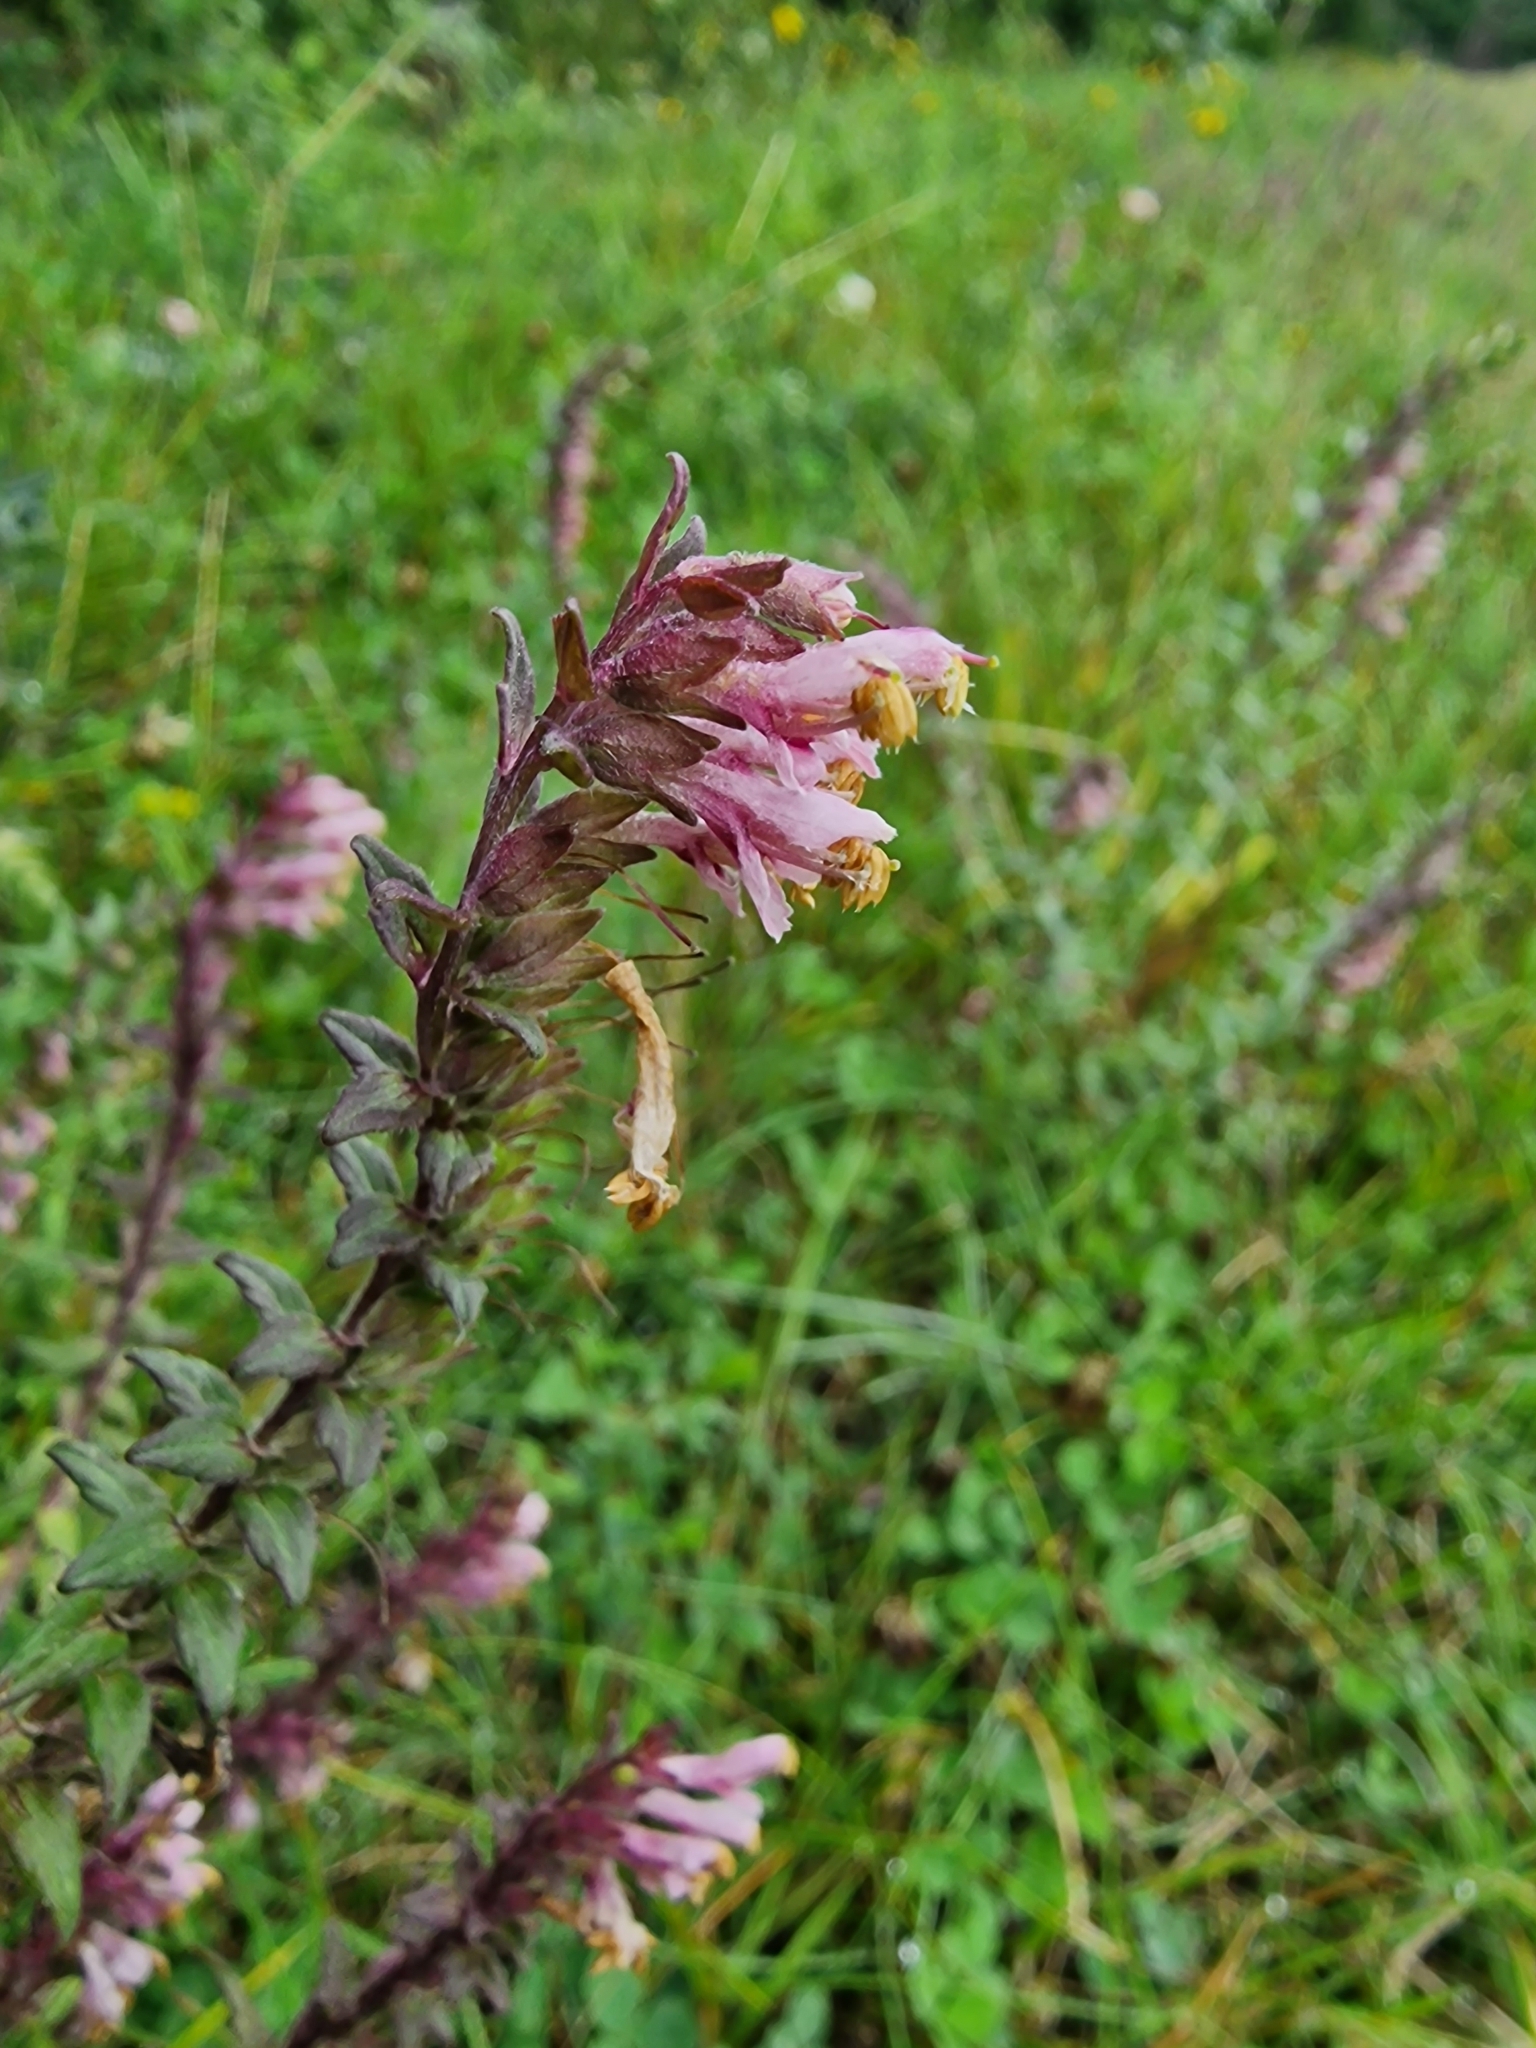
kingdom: Plantae
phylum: Tracheophyta
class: Magnoliopsida
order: Lamiales
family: Orobanchaceae
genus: Odontites
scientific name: Odontites vulgaris
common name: Broomrape
